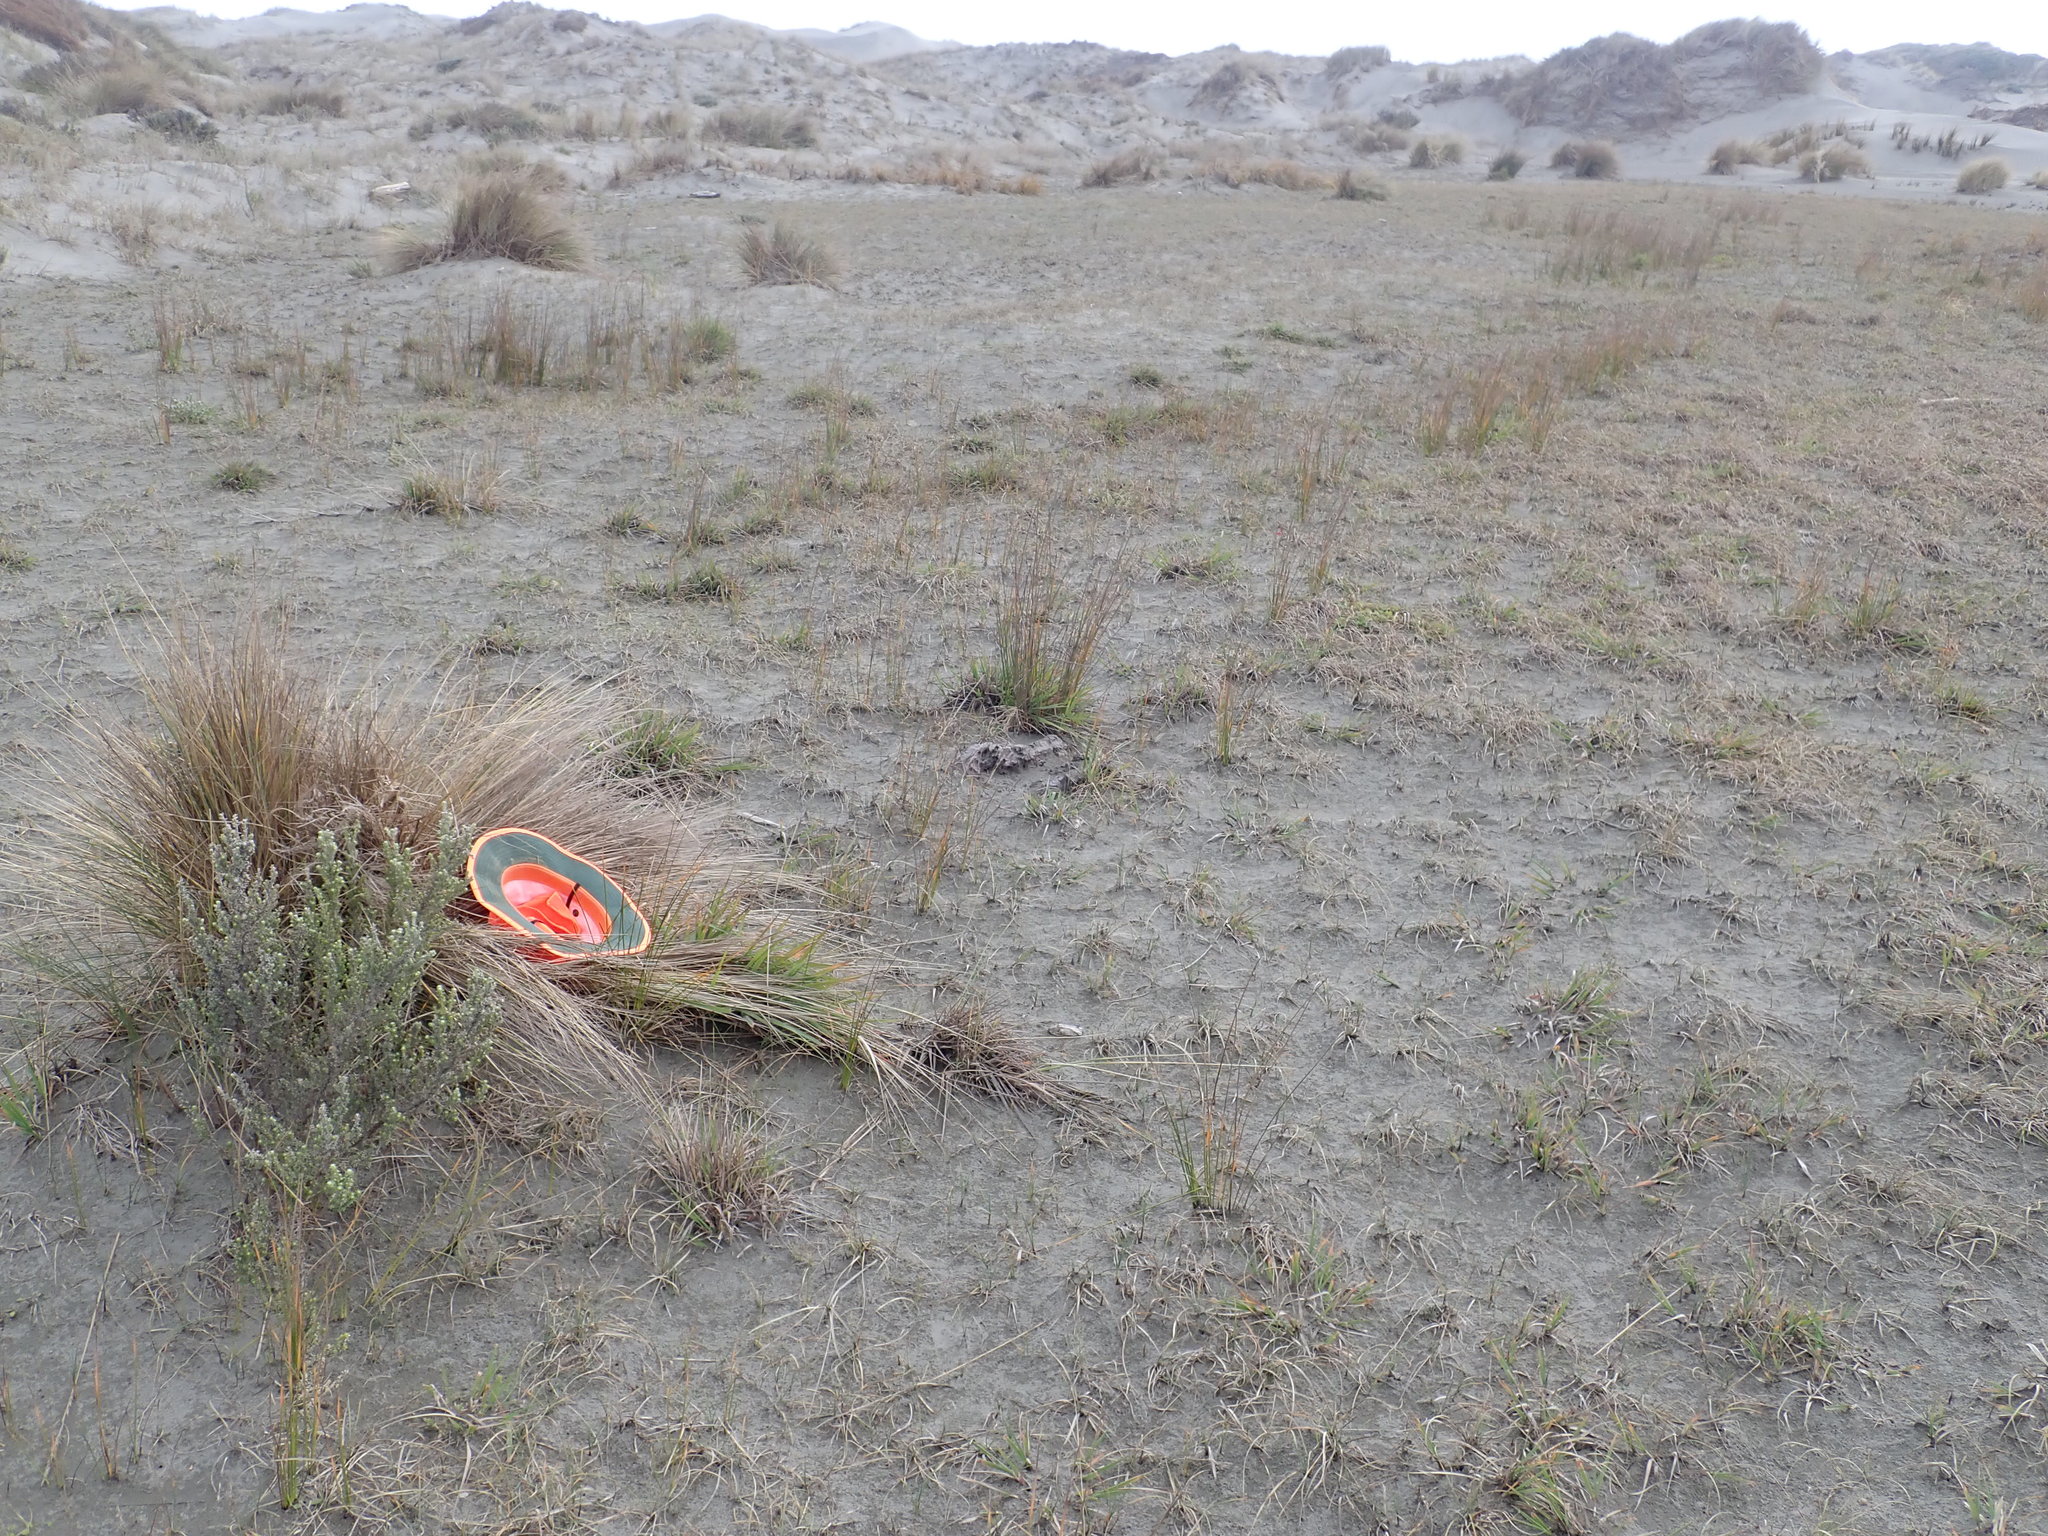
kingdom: Animalia
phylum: Arthropoda
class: Arachnida
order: Araneae
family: Thomisidae
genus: Sidymella
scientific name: Sidymella trapezia
